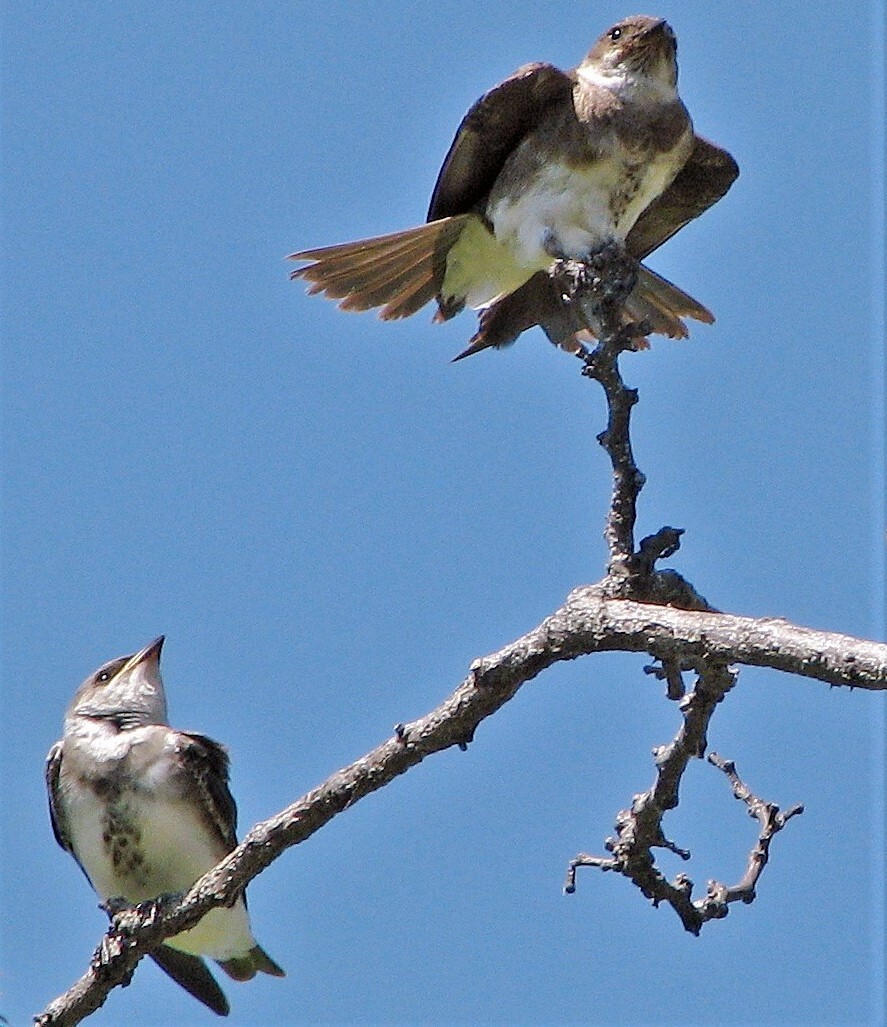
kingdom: Animalia
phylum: Chordata
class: Aves
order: Passeriformes
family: Hirundinidae
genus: Progne
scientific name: Progne tapera
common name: Brown-chested martin
